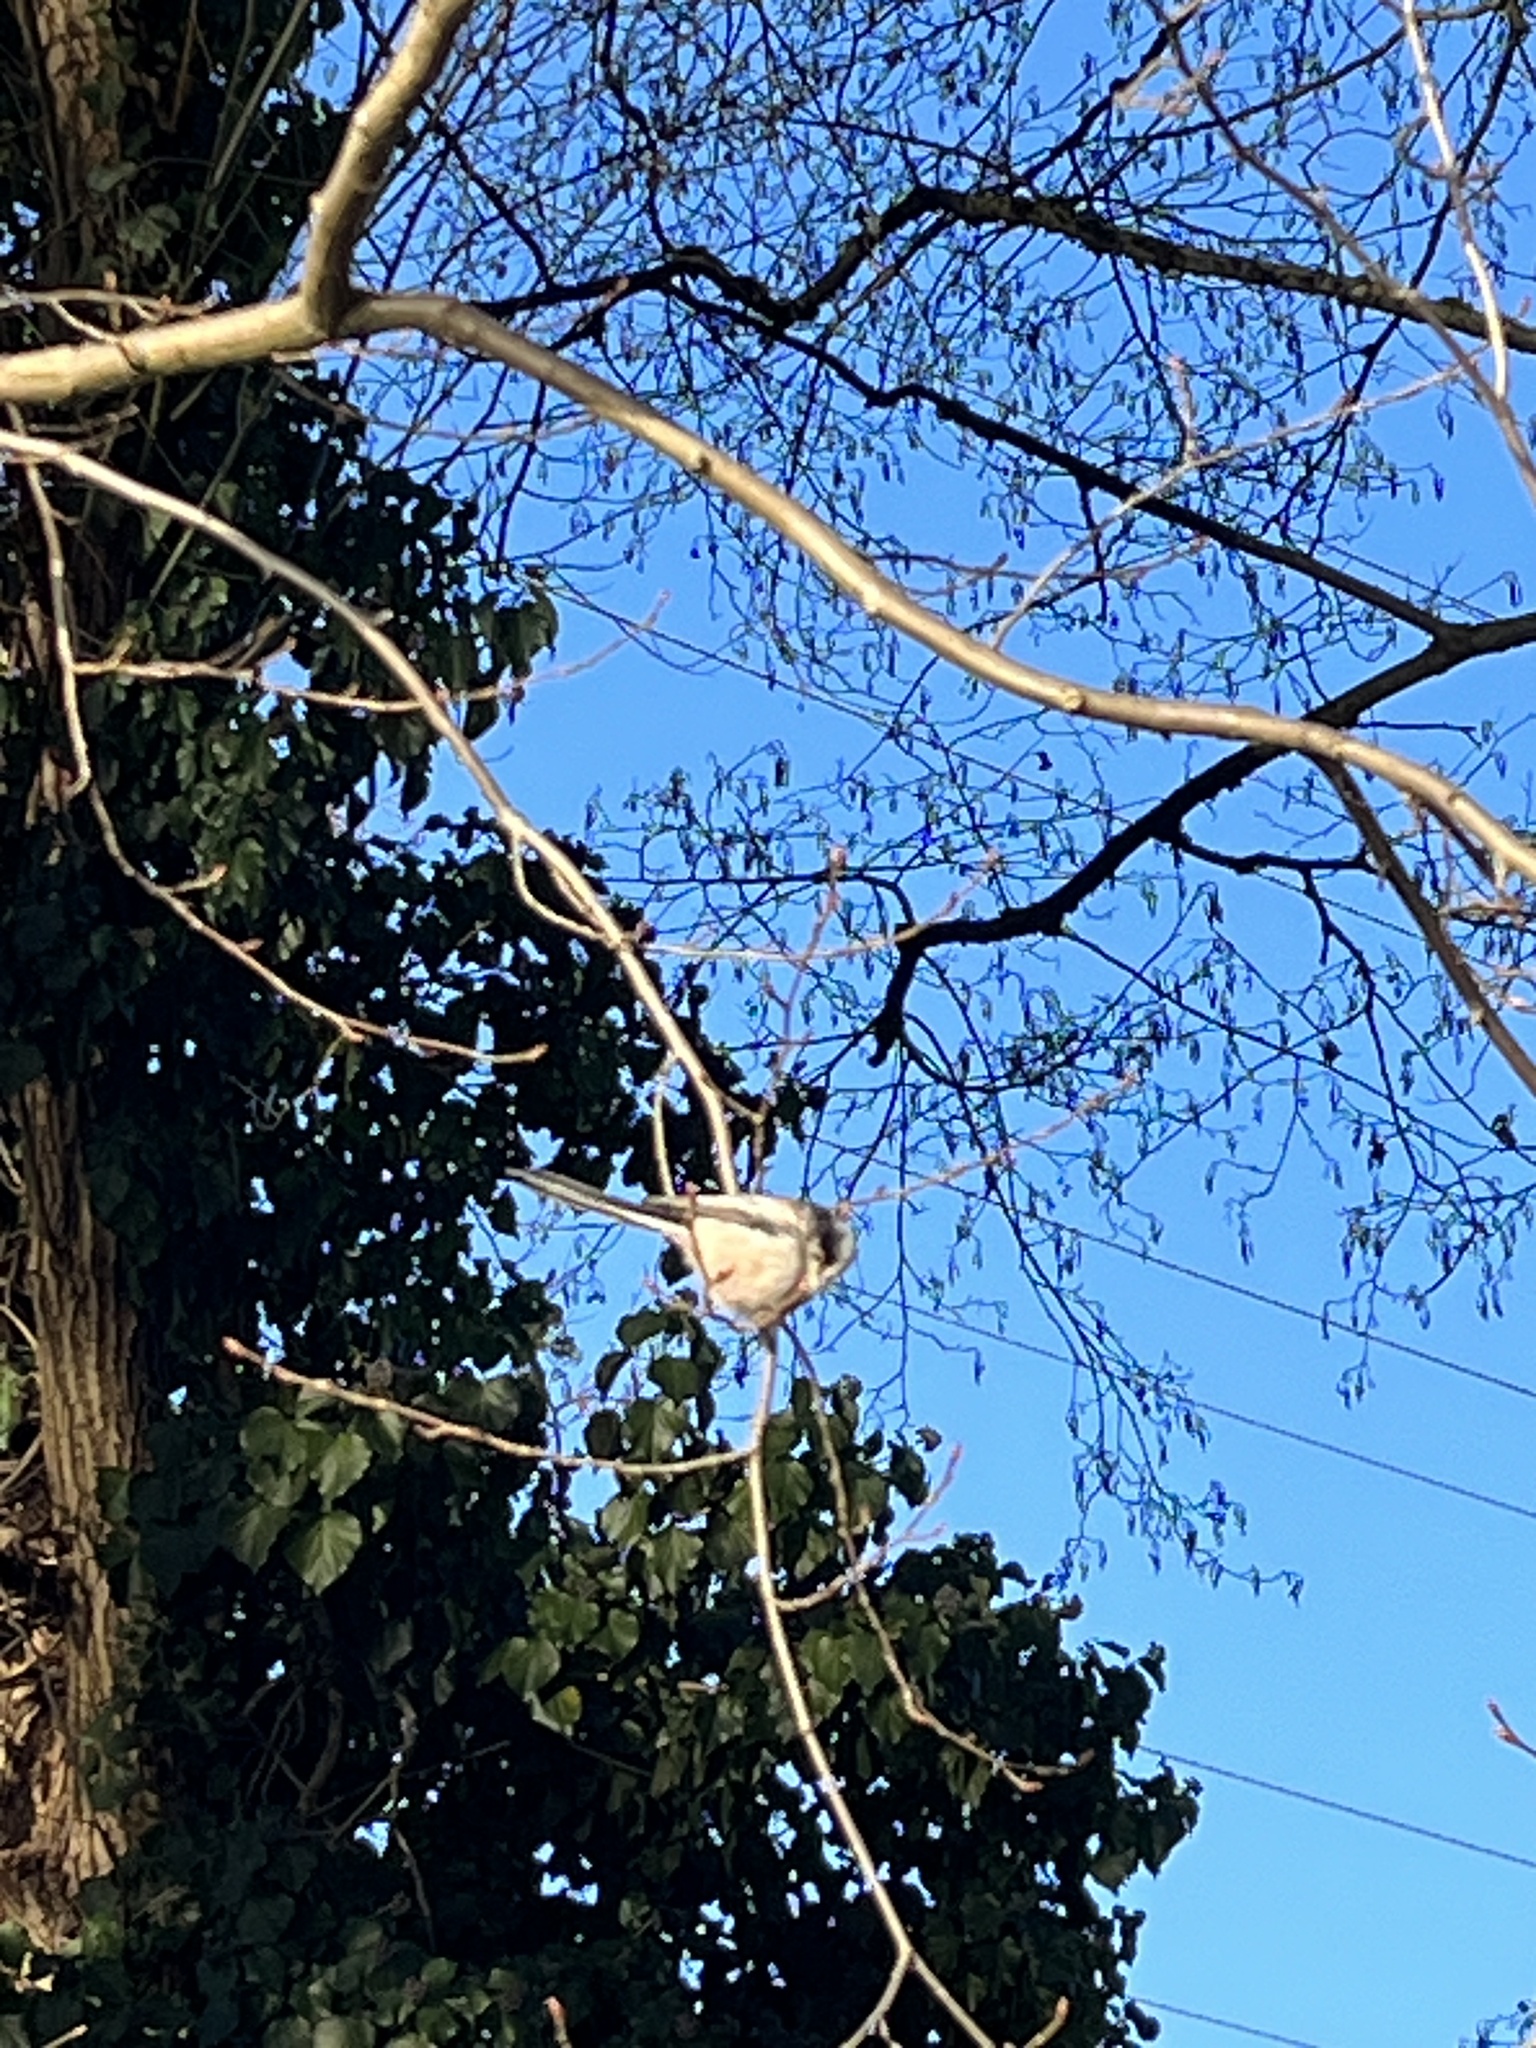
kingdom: Animalia
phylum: Chordata
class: Aves
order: Passeriformes
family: Aegithalidae
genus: Aegithalos
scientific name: Aegithalos caudatus
